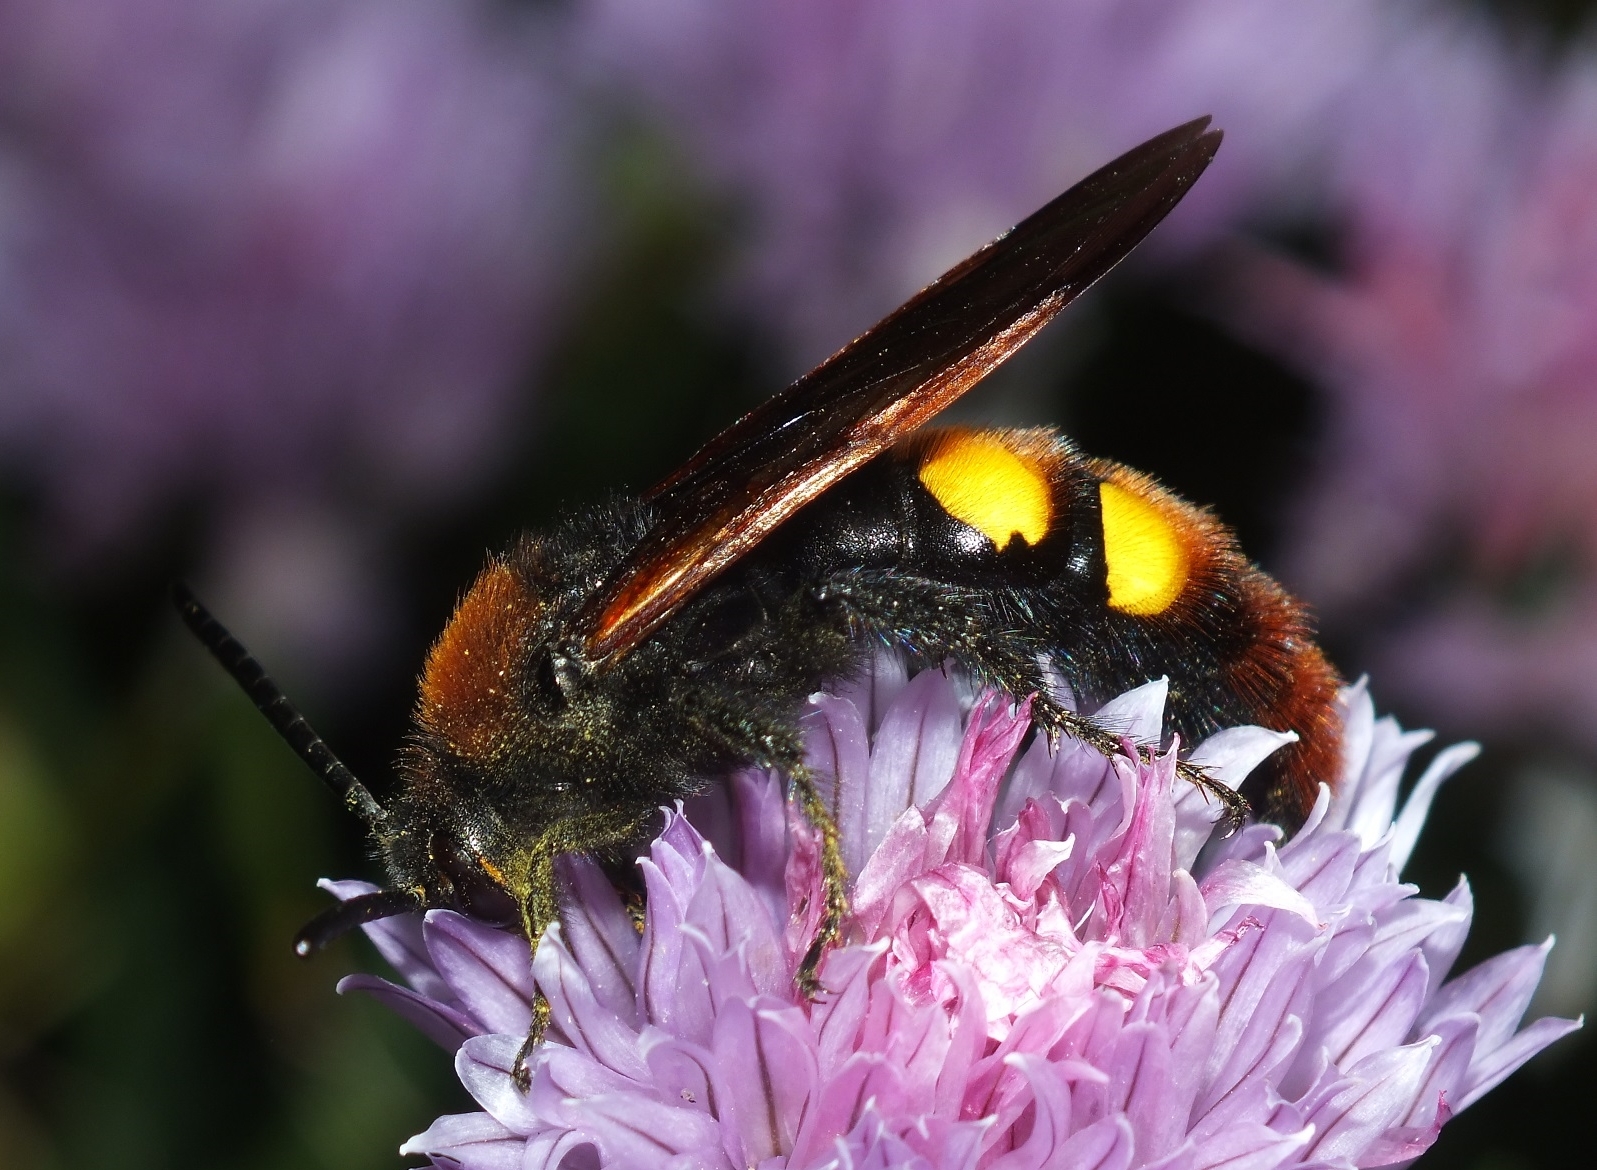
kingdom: Animalia
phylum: Arthropoda
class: Insecta
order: Hymenoptera
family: Scoliidae
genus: Megascolia
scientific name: Megascolia maculata
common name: Mammoth wasp
